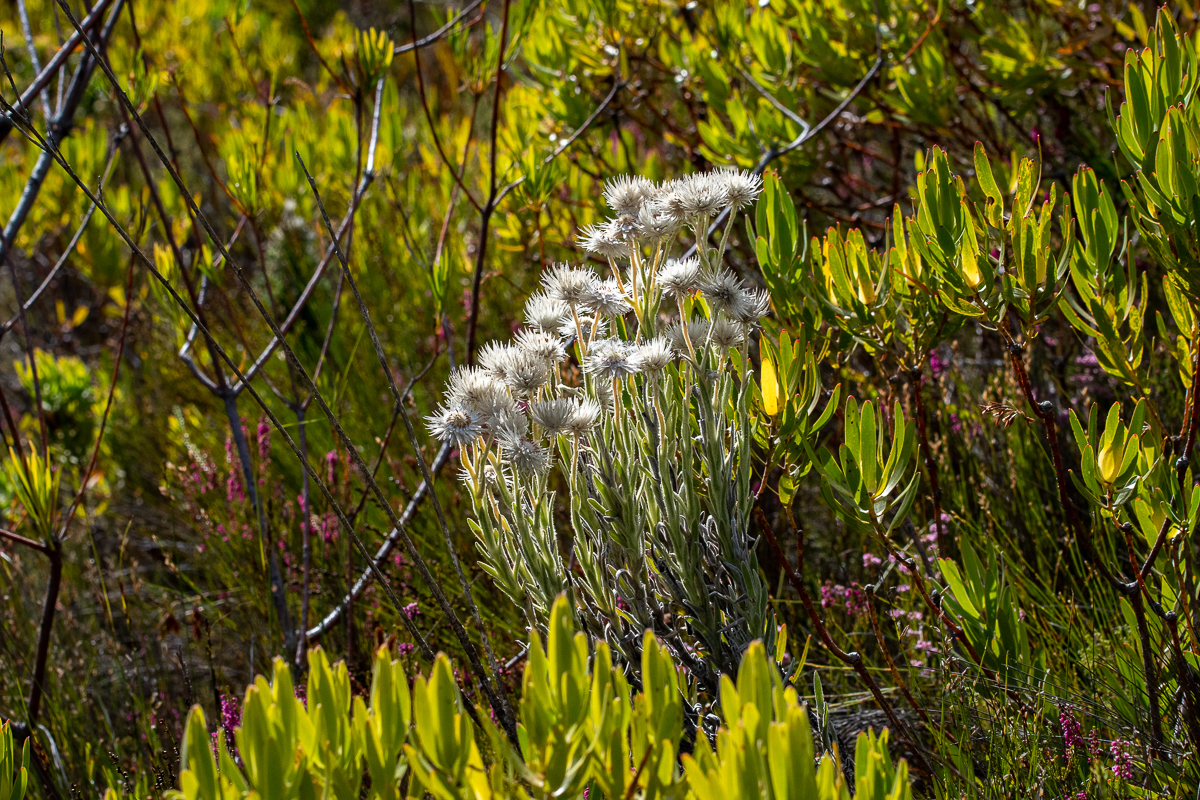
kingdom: Plantae
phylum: Tracheophyta
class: Magnoliopsida
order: Asterales
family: Asteraceae
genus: Syncarpha
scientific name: Syncarpha vestita
